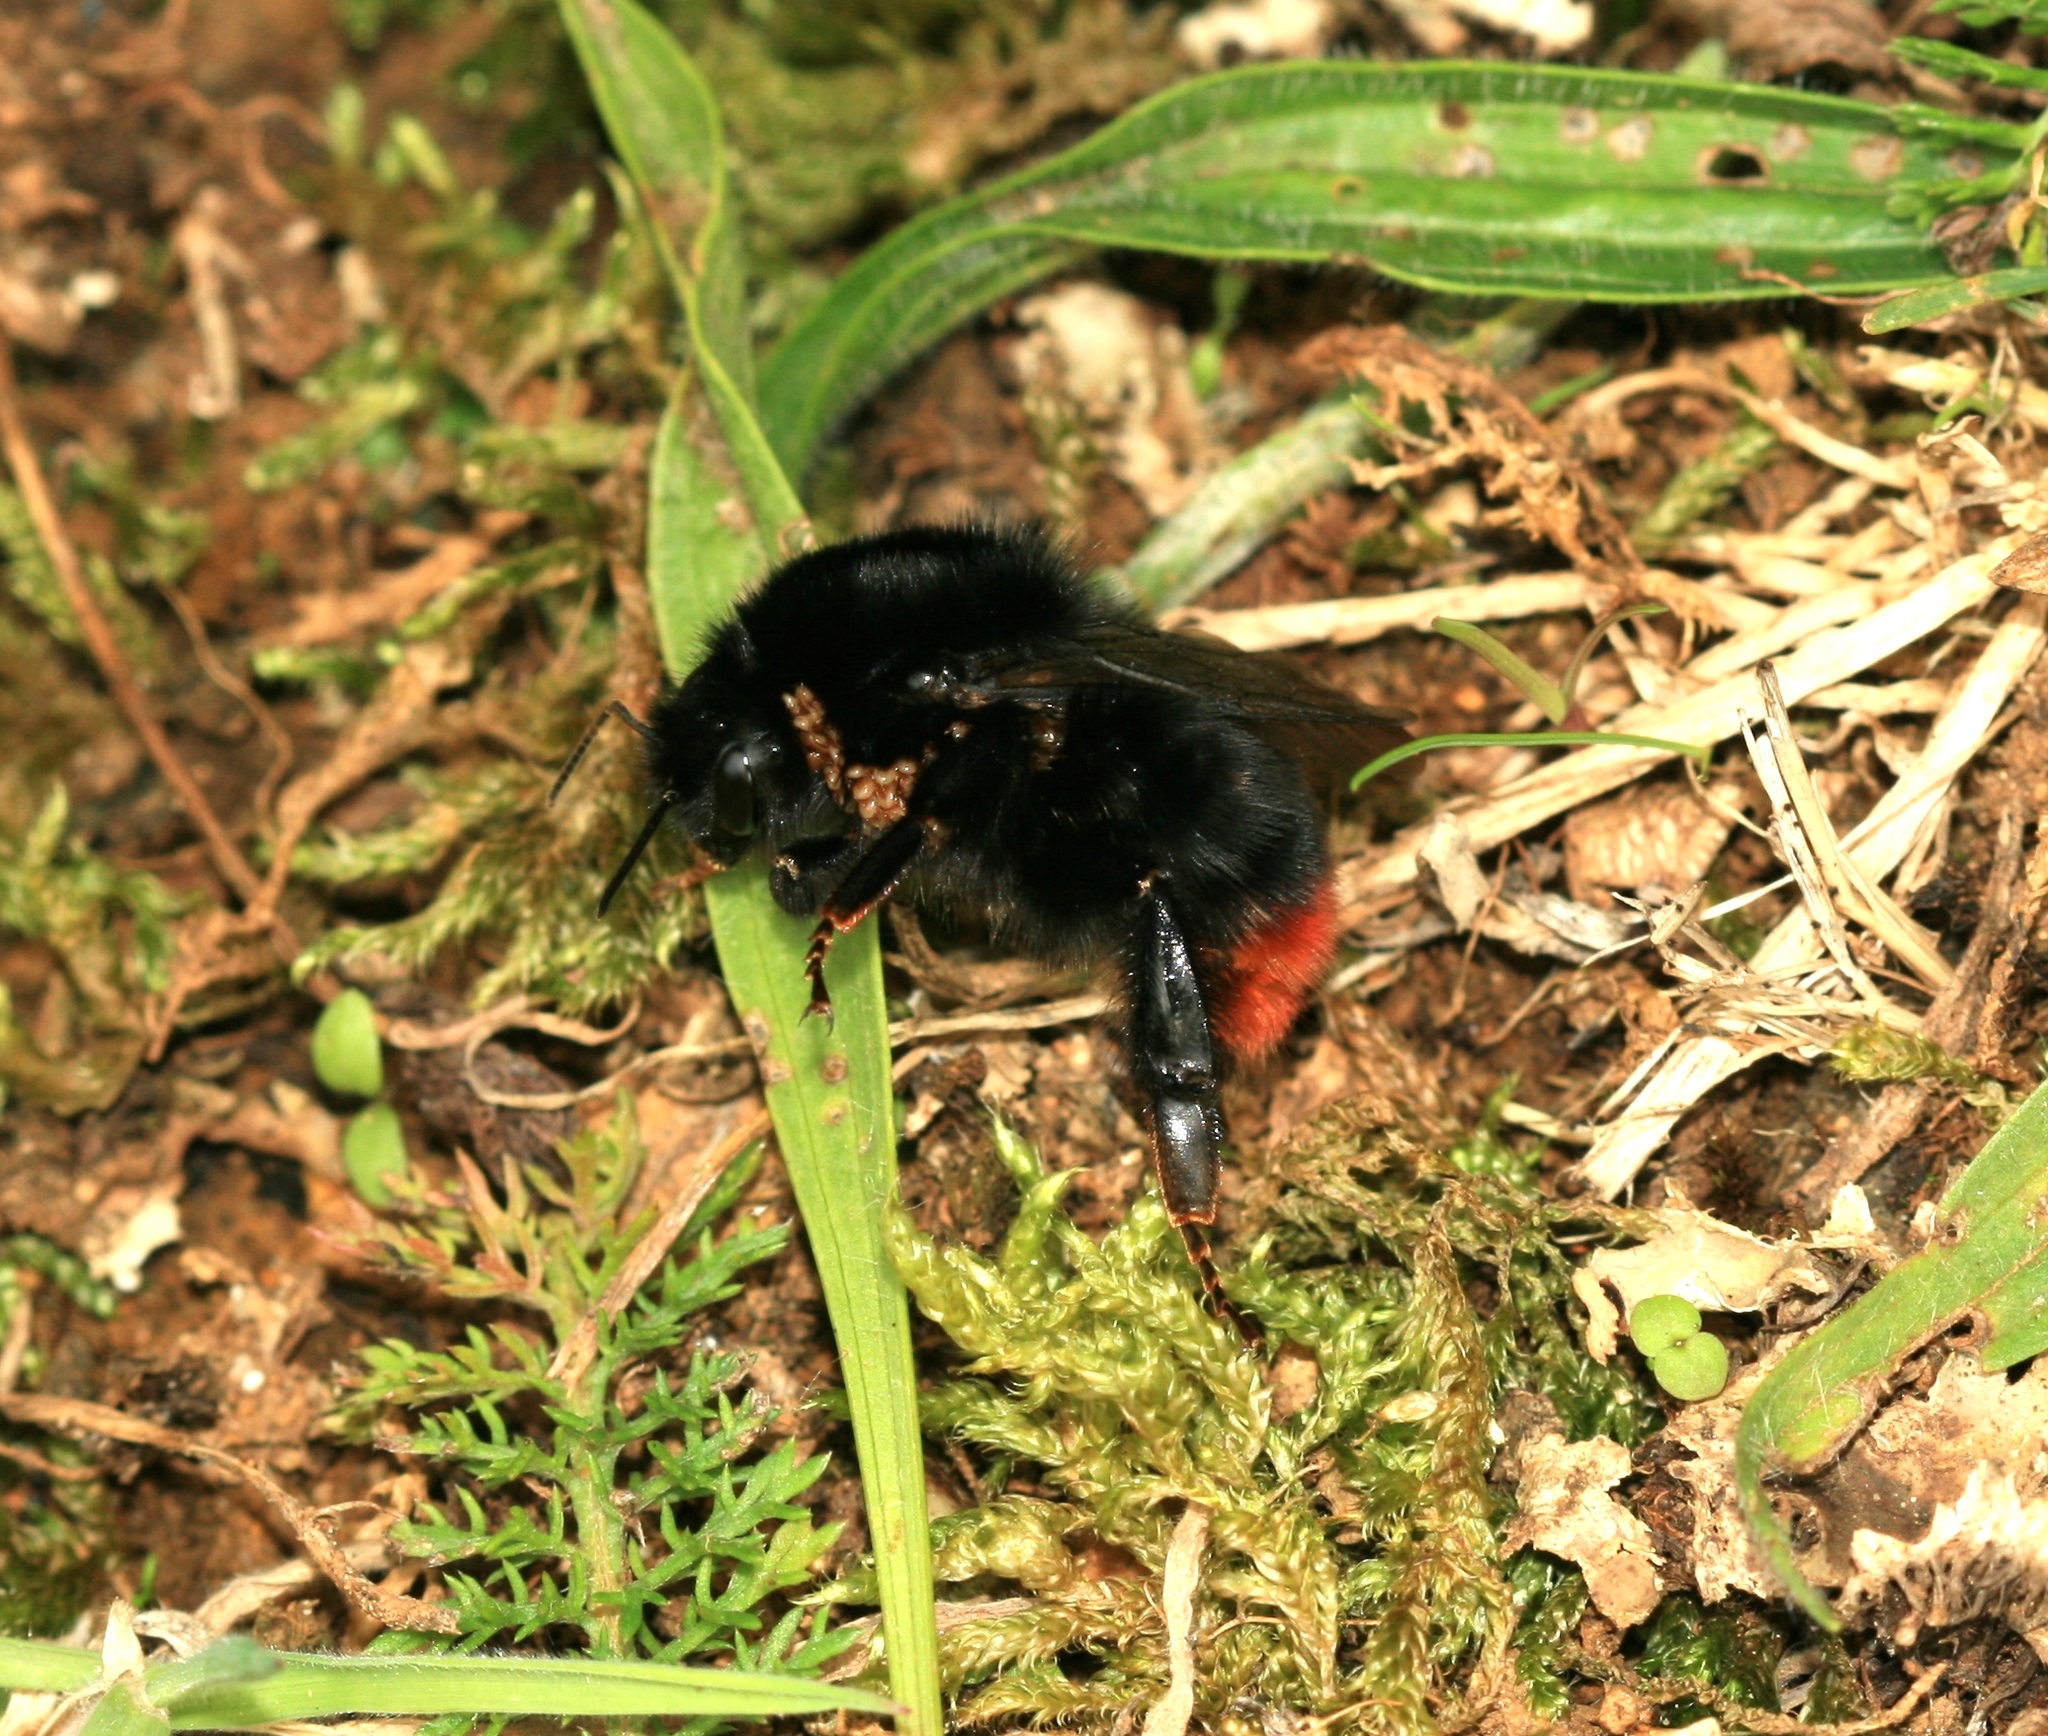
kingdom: Animalia
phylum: Arthropoda
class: Insecta
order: Hymenoptera
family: Apidae
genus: Bombus
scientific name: Bombus lapidarius
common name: Large red-tailed humble-bee
